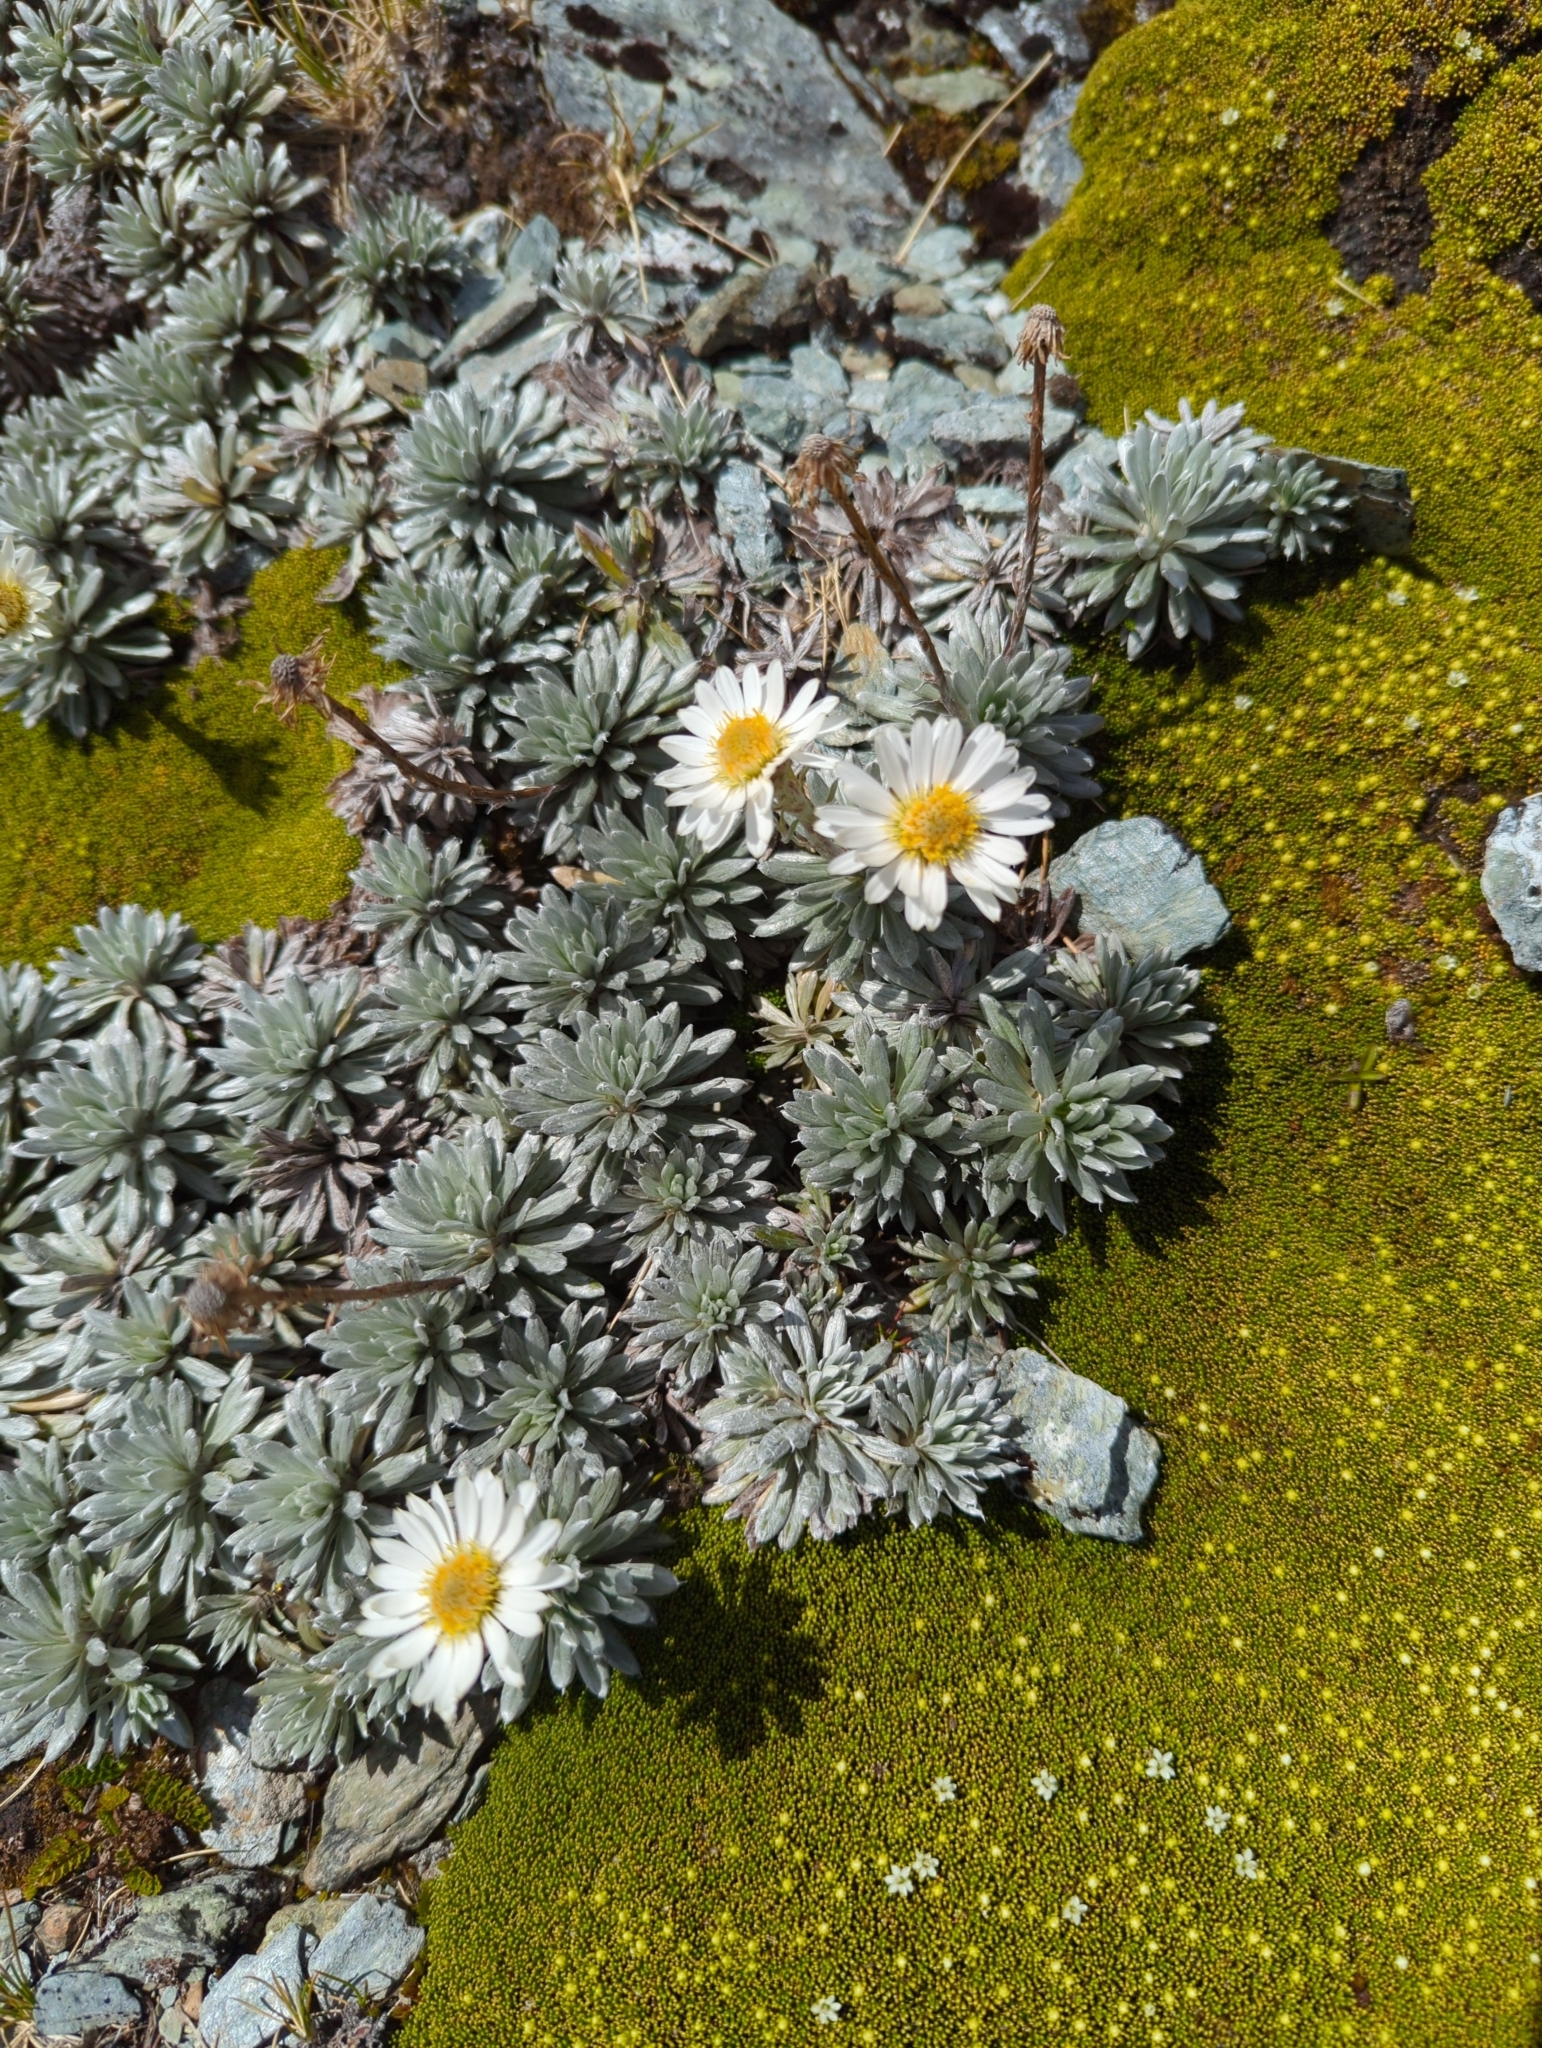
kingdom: Plantae
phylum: Tracheophyta
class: Magnoliopsida
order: Asterales
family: Asteraceae
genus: Celmisia
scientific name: Celmisia hectorii
